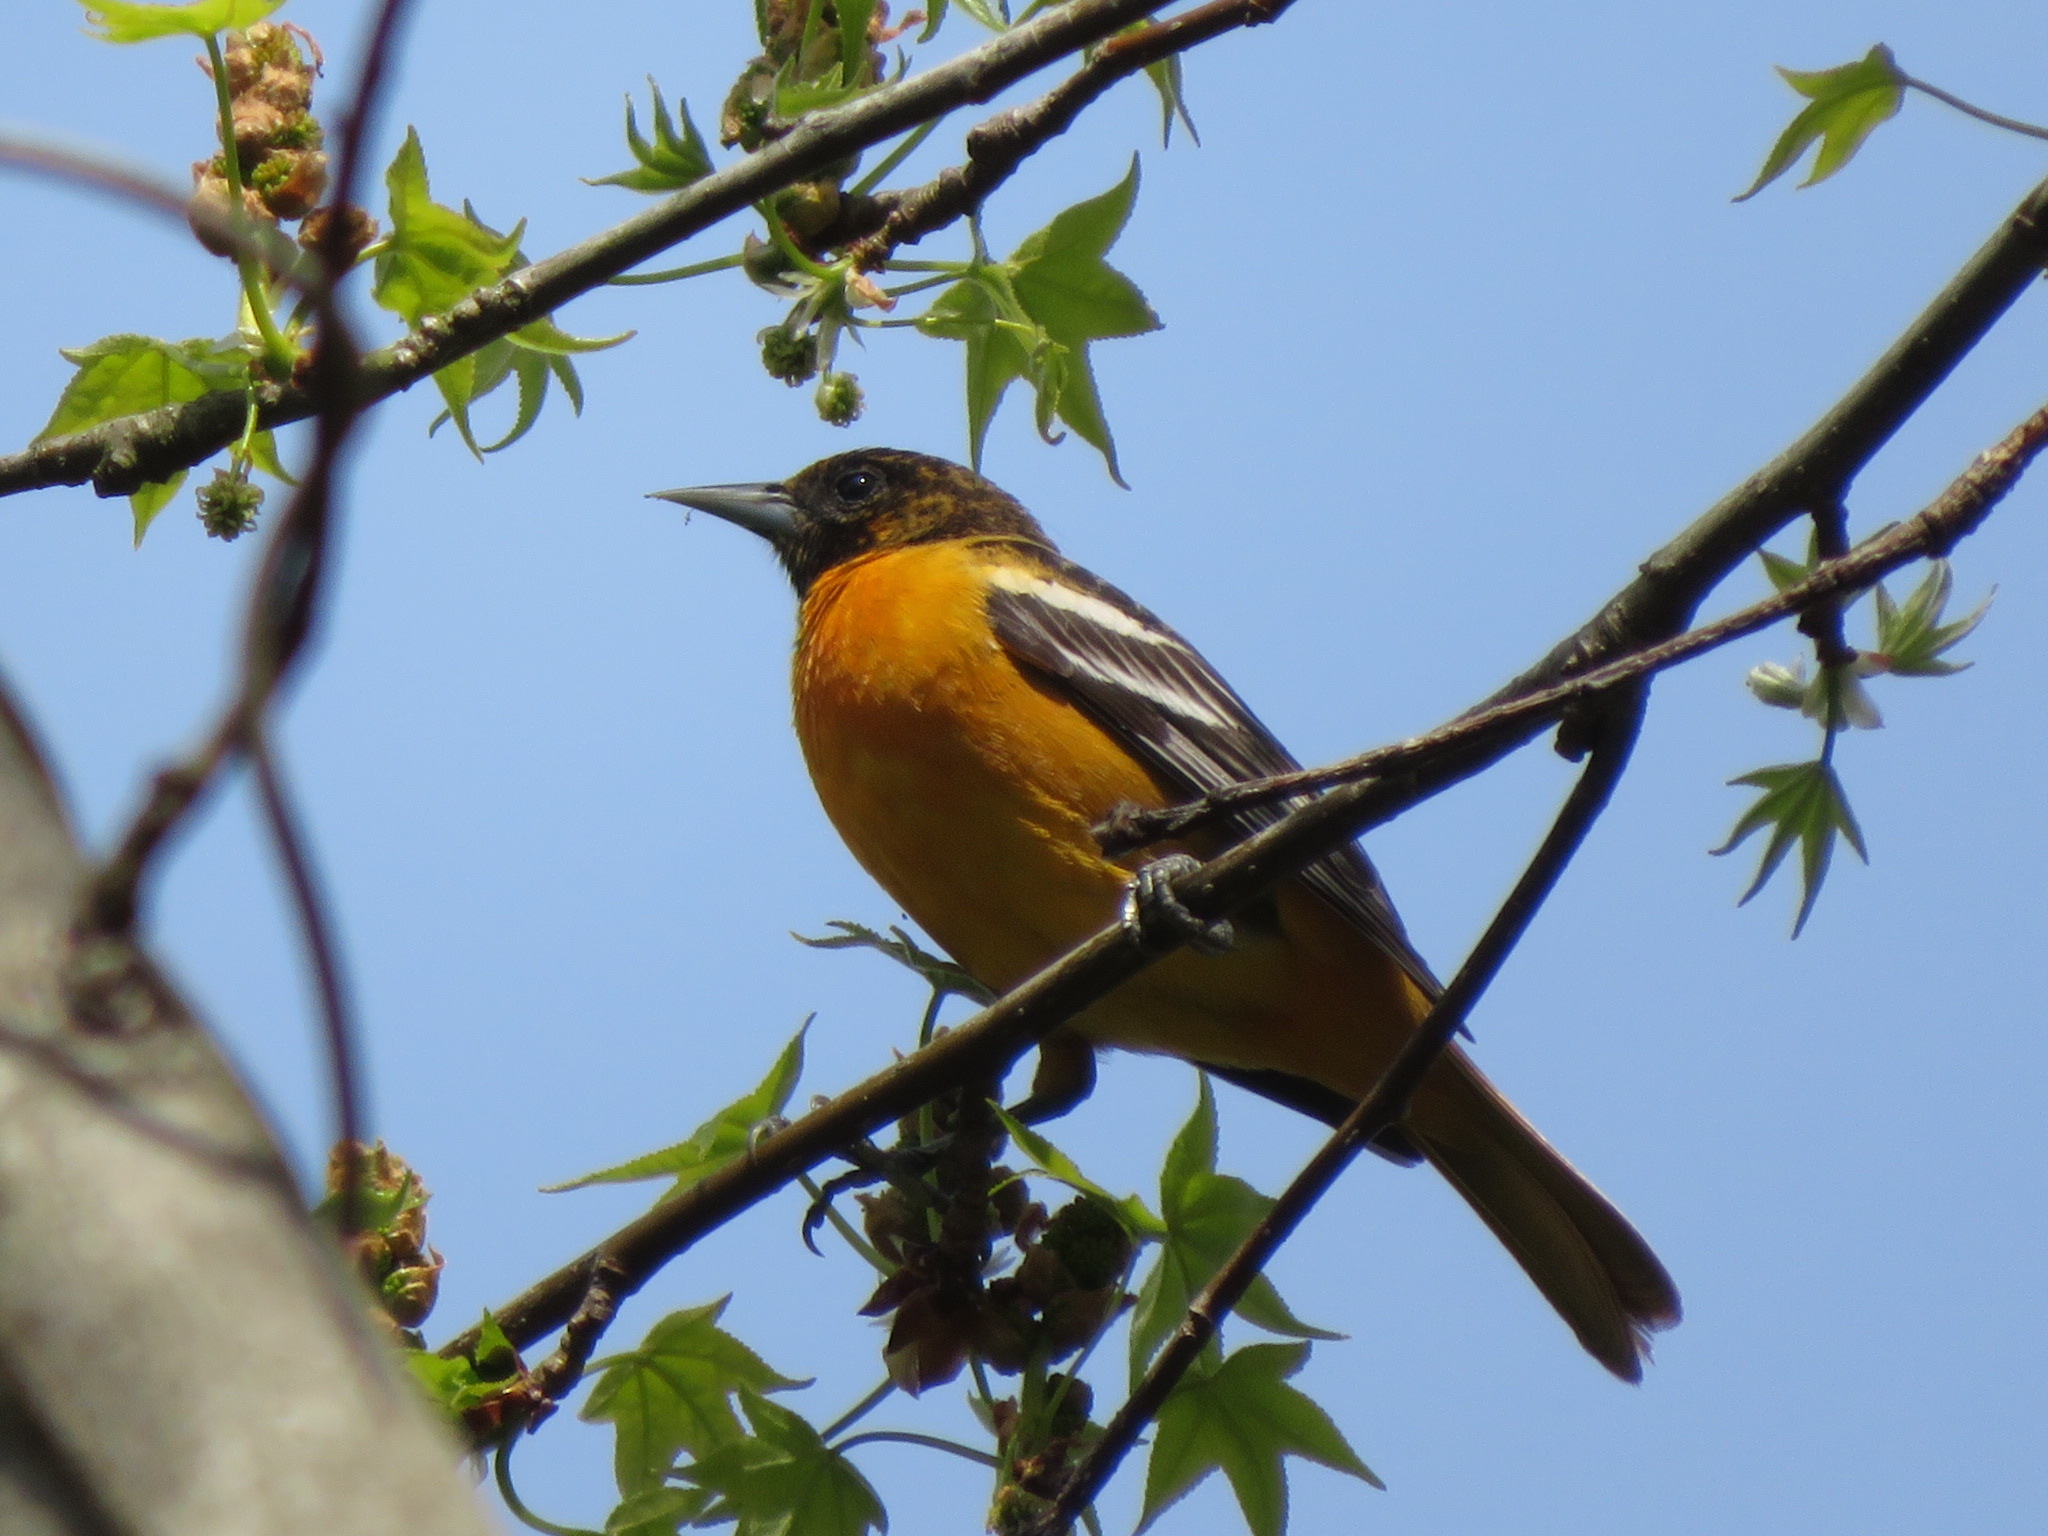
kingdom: Animalia
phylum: Chordata
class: Aves
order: Passeriformes
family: Icteridae
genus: Icterus
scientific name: Icterus galbula
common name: Baltimore oriole
